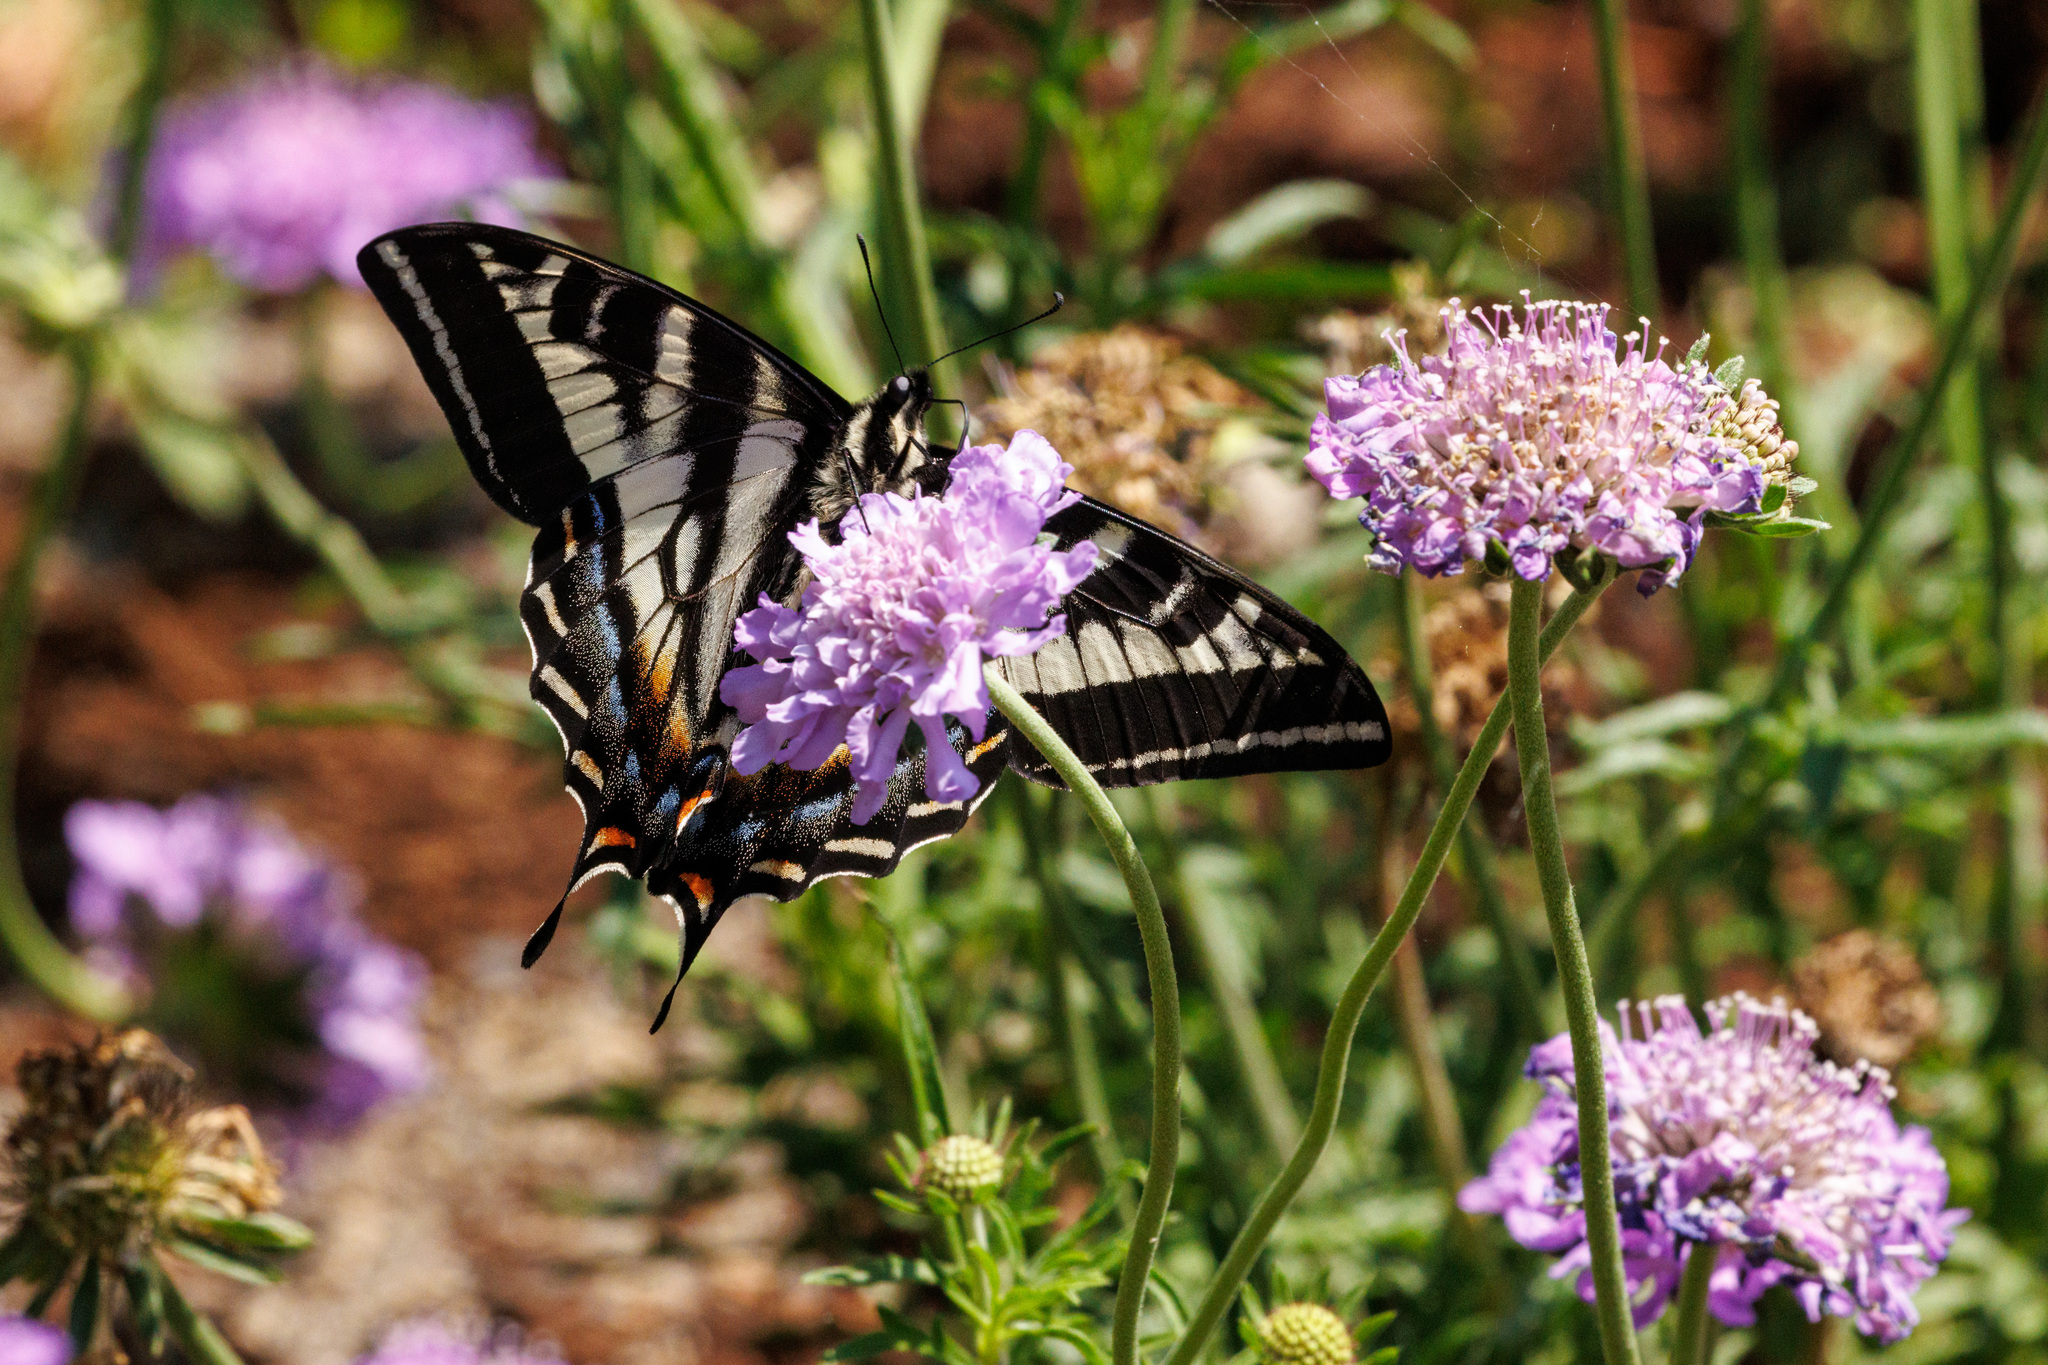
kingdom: Animalia
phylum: Arthropoda
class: Insecta
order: Lepidoptera
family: Papilionidae
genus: Papilio
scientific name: Papilio eurymedon
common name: Pale tiger swallowtail
